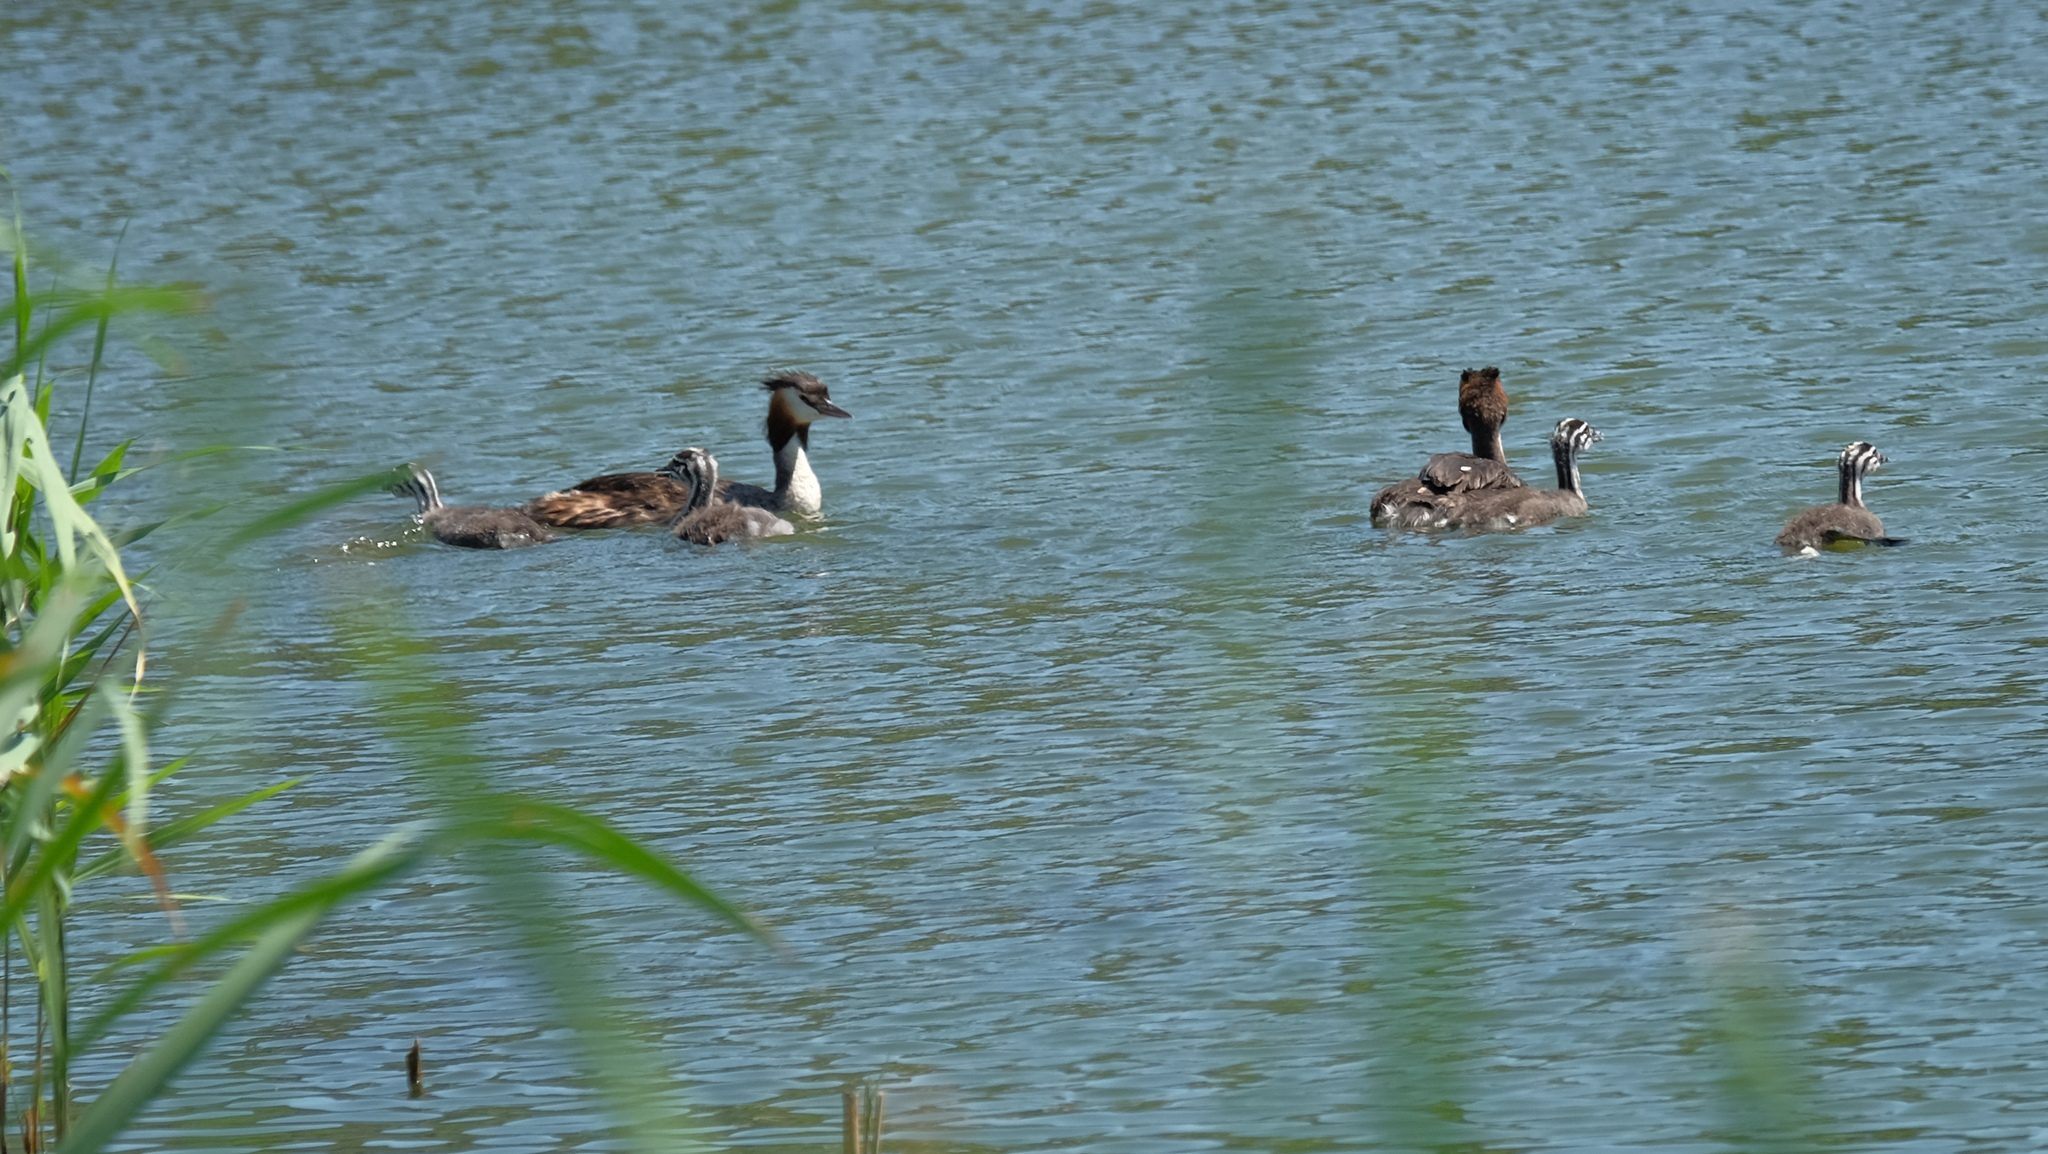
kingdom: Animalia
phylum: Chordata
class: Aves
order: Podicipediformes
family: Podicipedidae
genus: Podiceps
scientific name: Podiceps cristatus
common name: Great crested grebe
